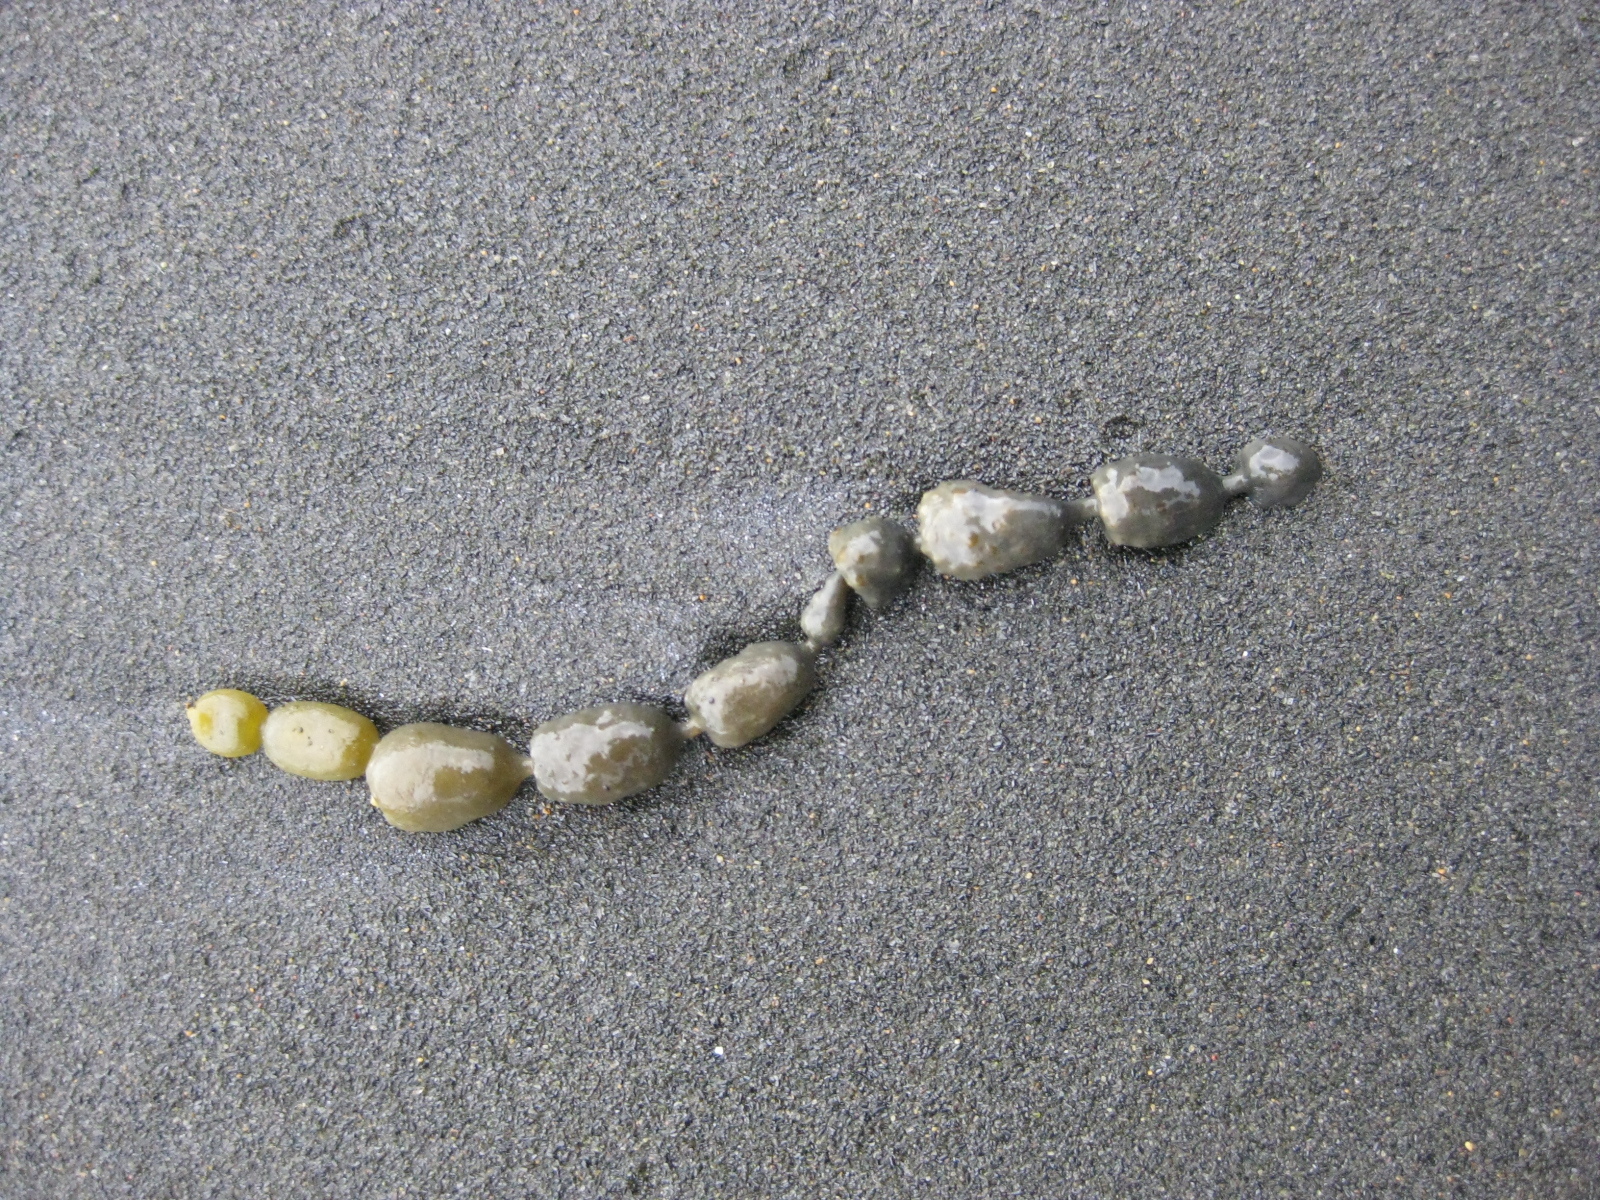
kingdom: Chromista
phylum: Ochrophyta
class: Phaeophyceae
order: Fucales
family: Hormosiraceae
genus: Hormosira
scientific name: Hormosira banksii
